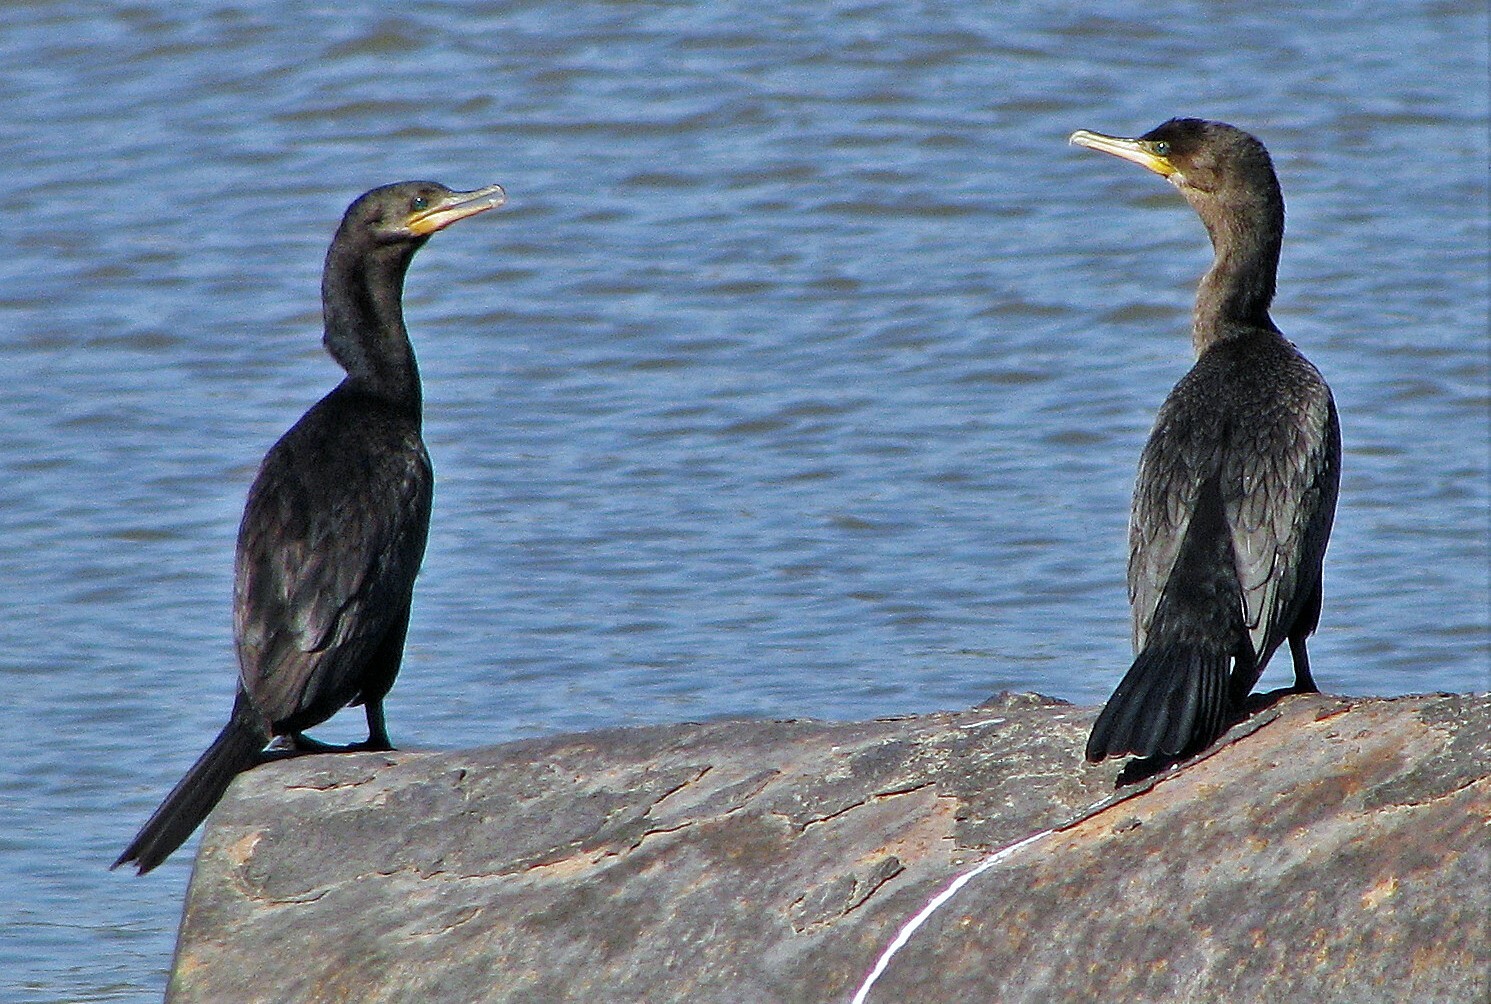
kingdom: Animalia
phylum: Chordata
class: Aves
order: Suliformes
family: Phalacrocoracidae
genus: Phalacrocorax
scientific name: Phalacrocorax brasilianus
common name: Neotropic cormorant
